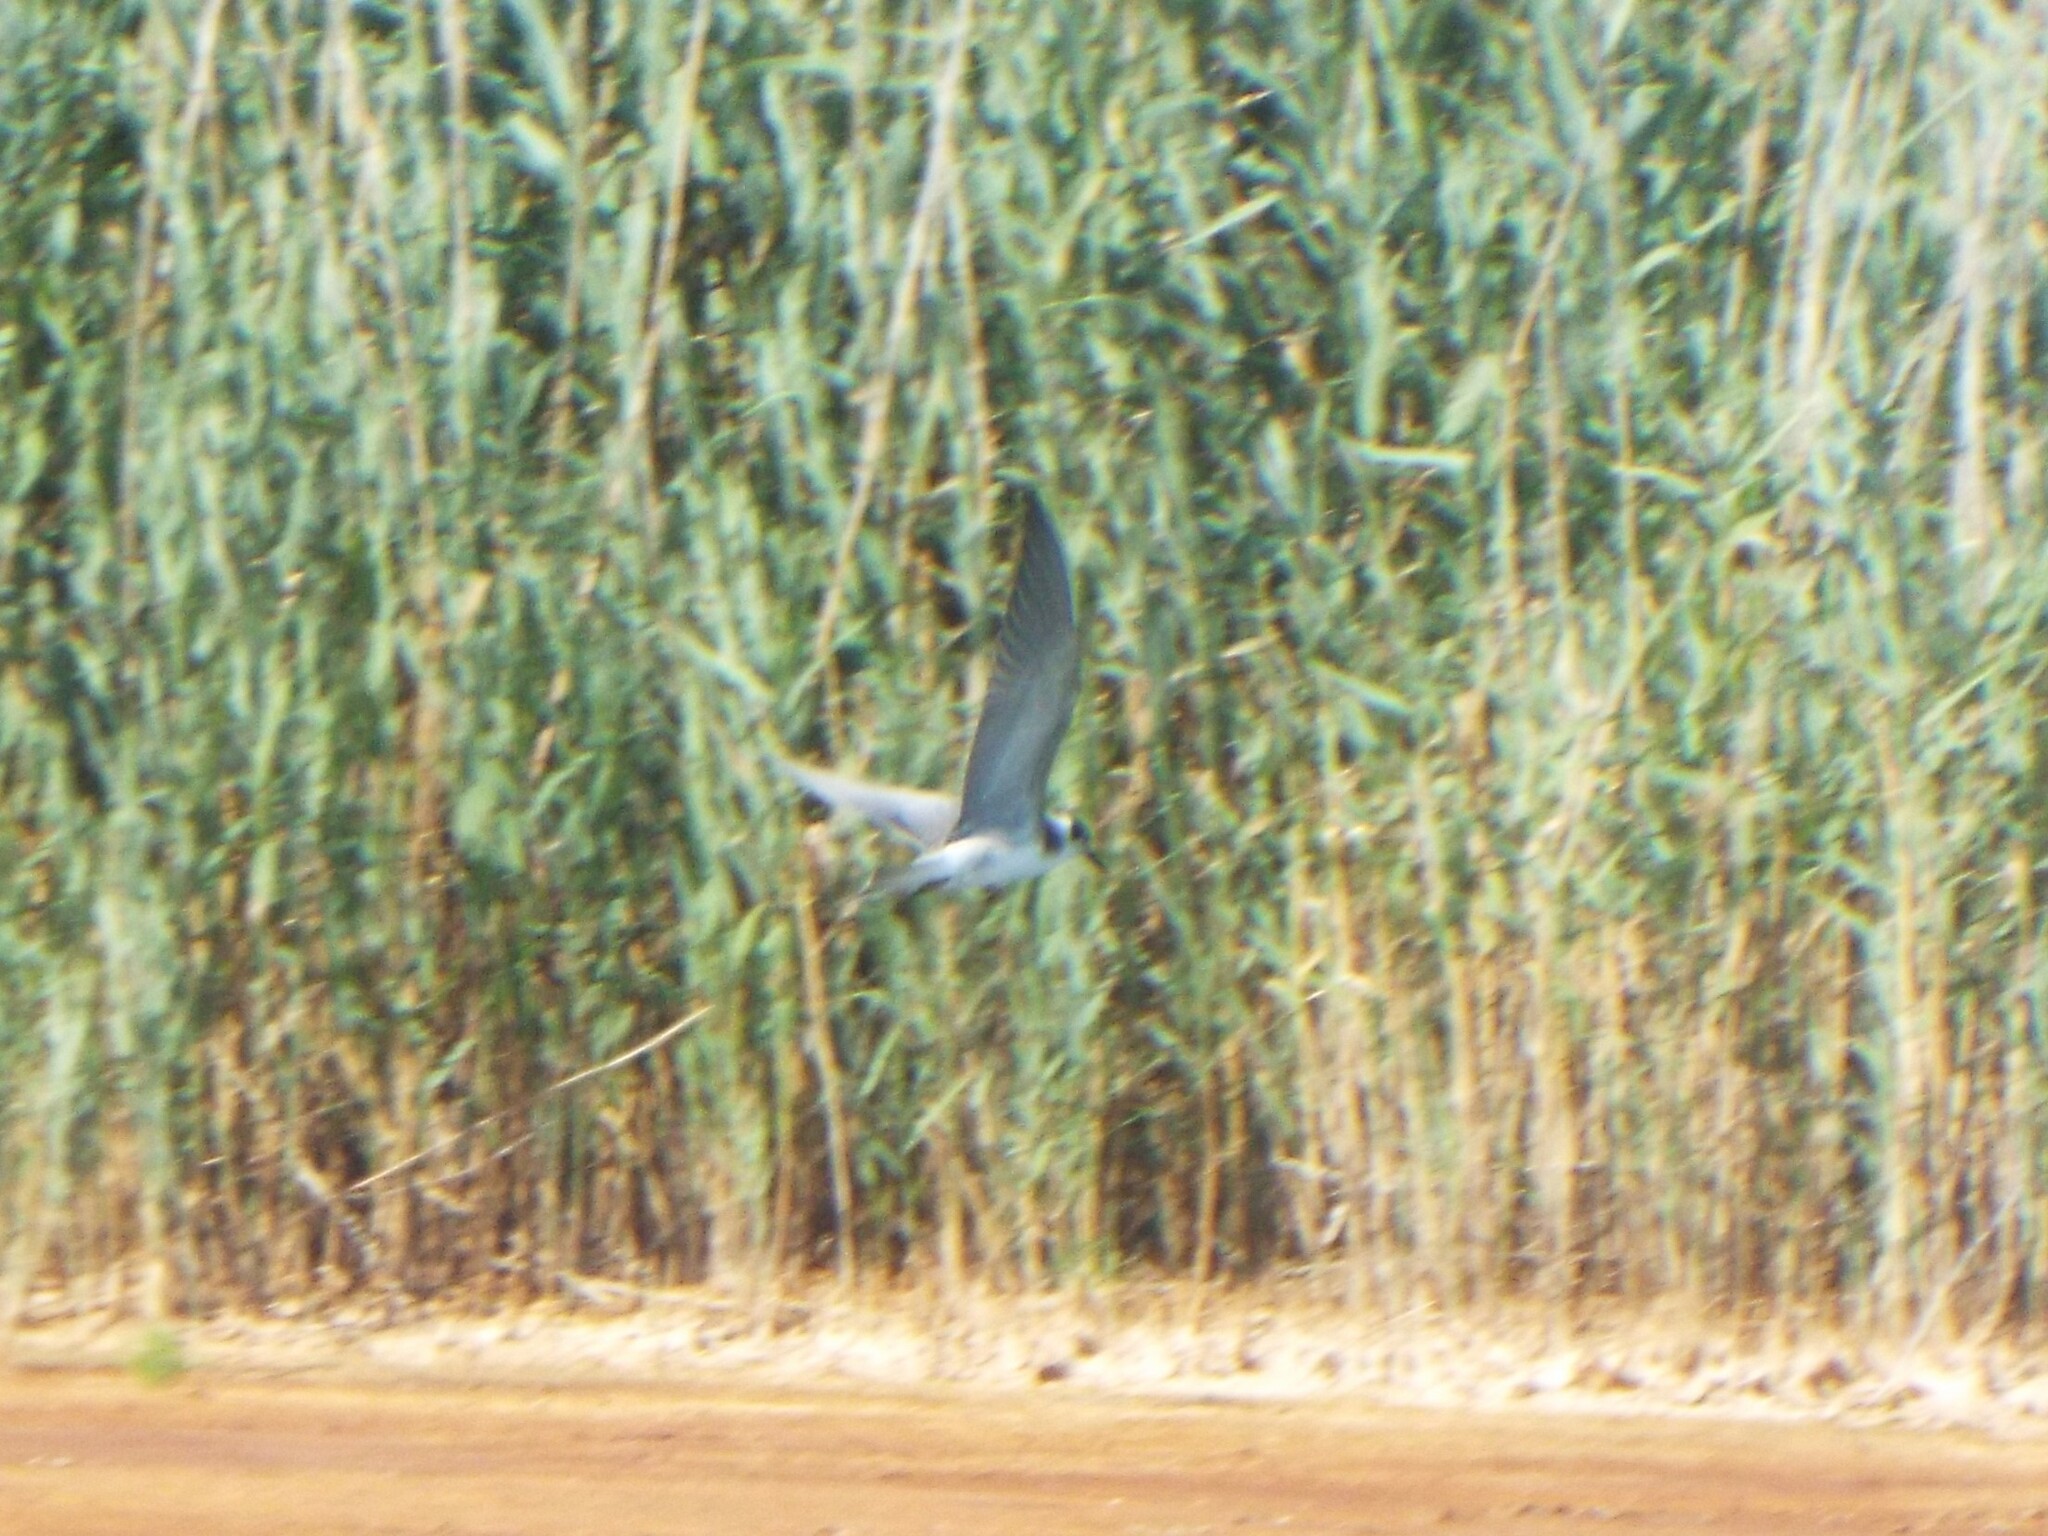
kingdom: Animalia
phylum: Chordata
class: Aves
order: Charadriiformes
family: Laridae
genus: Chlidonias
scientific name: Chlidonias niger
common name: Black tern
